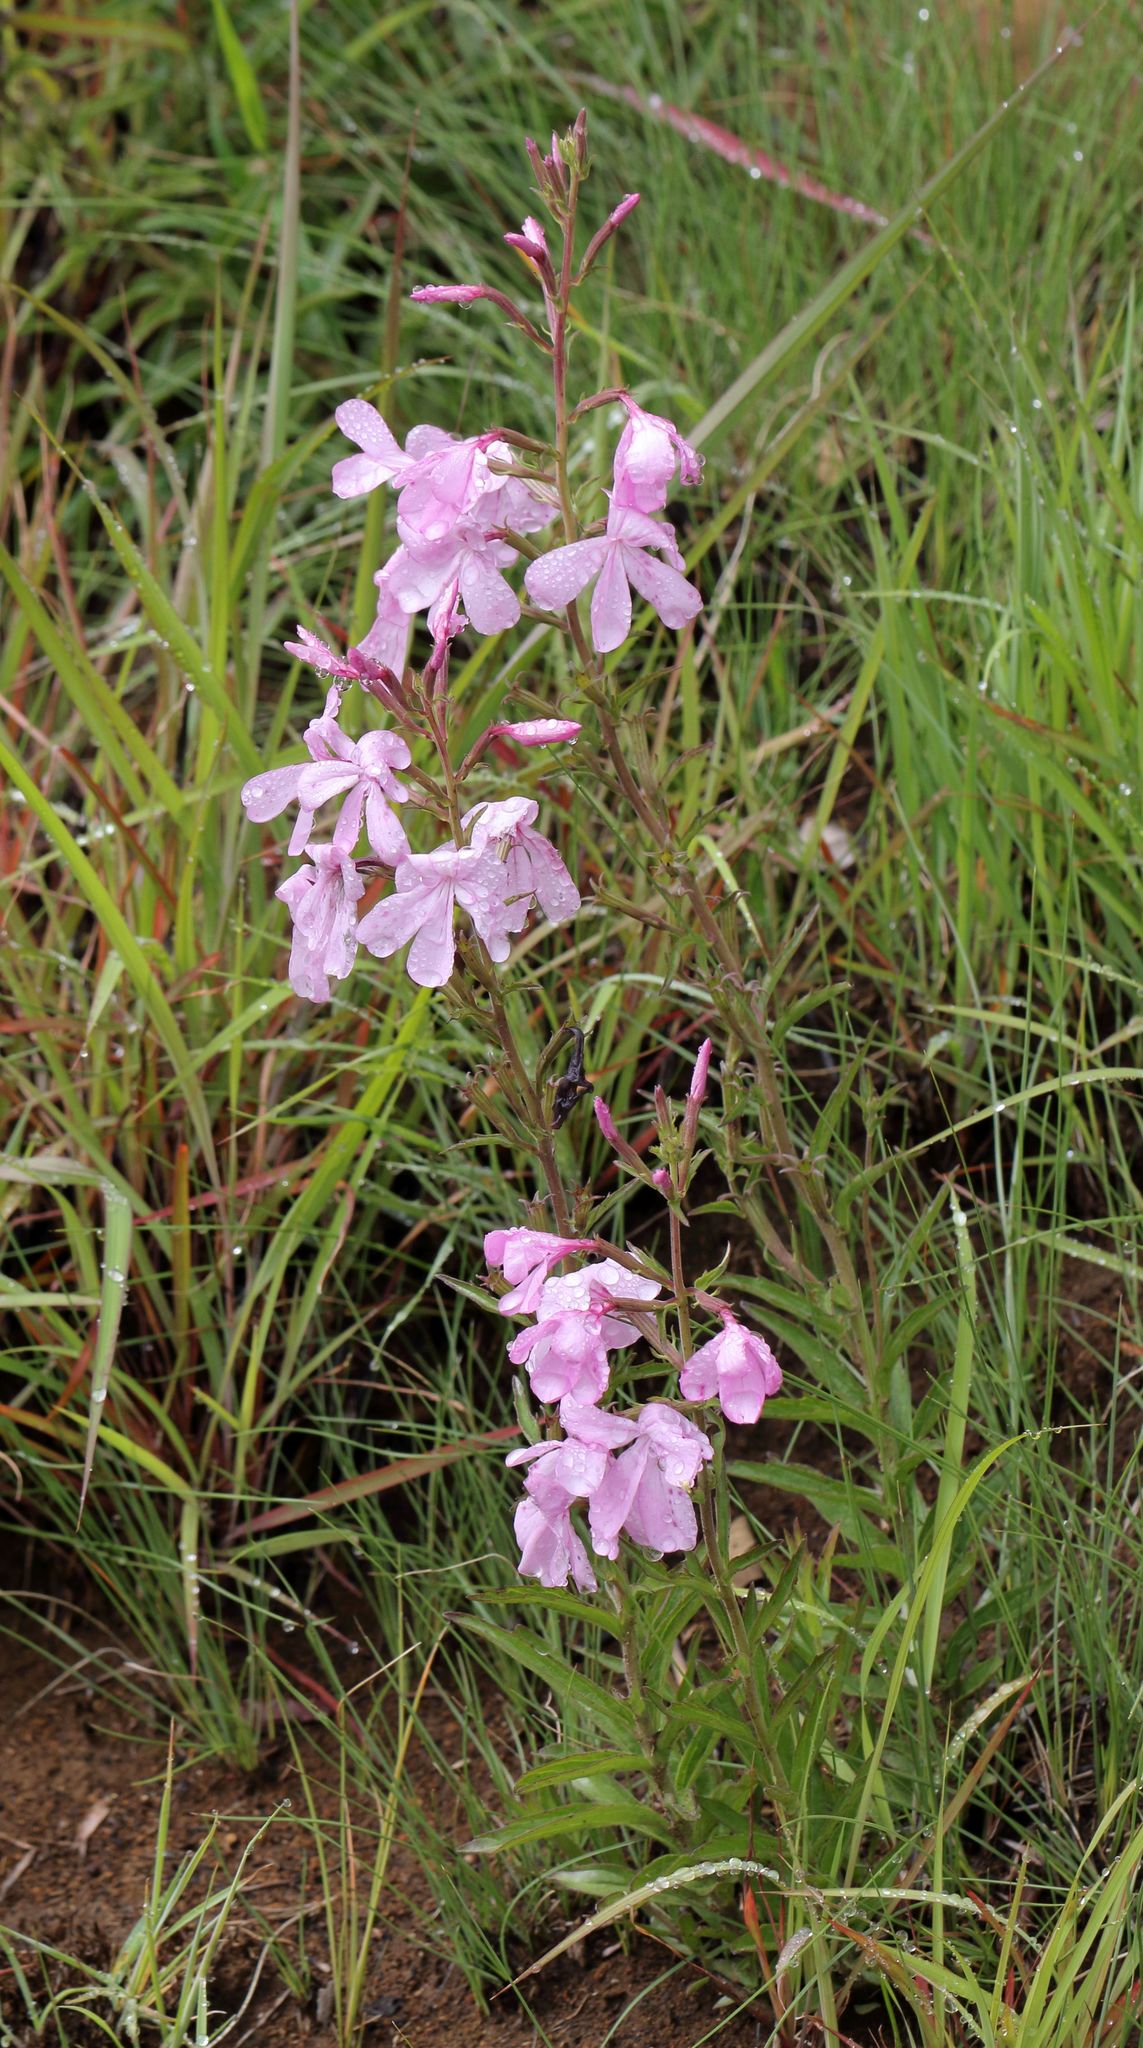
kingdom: Plantae
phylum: Tracheophyta
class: Magnoliopsida
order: Lamiales
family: Orobanchaceae
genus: Cycnium
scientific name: Cycnium racemosum
